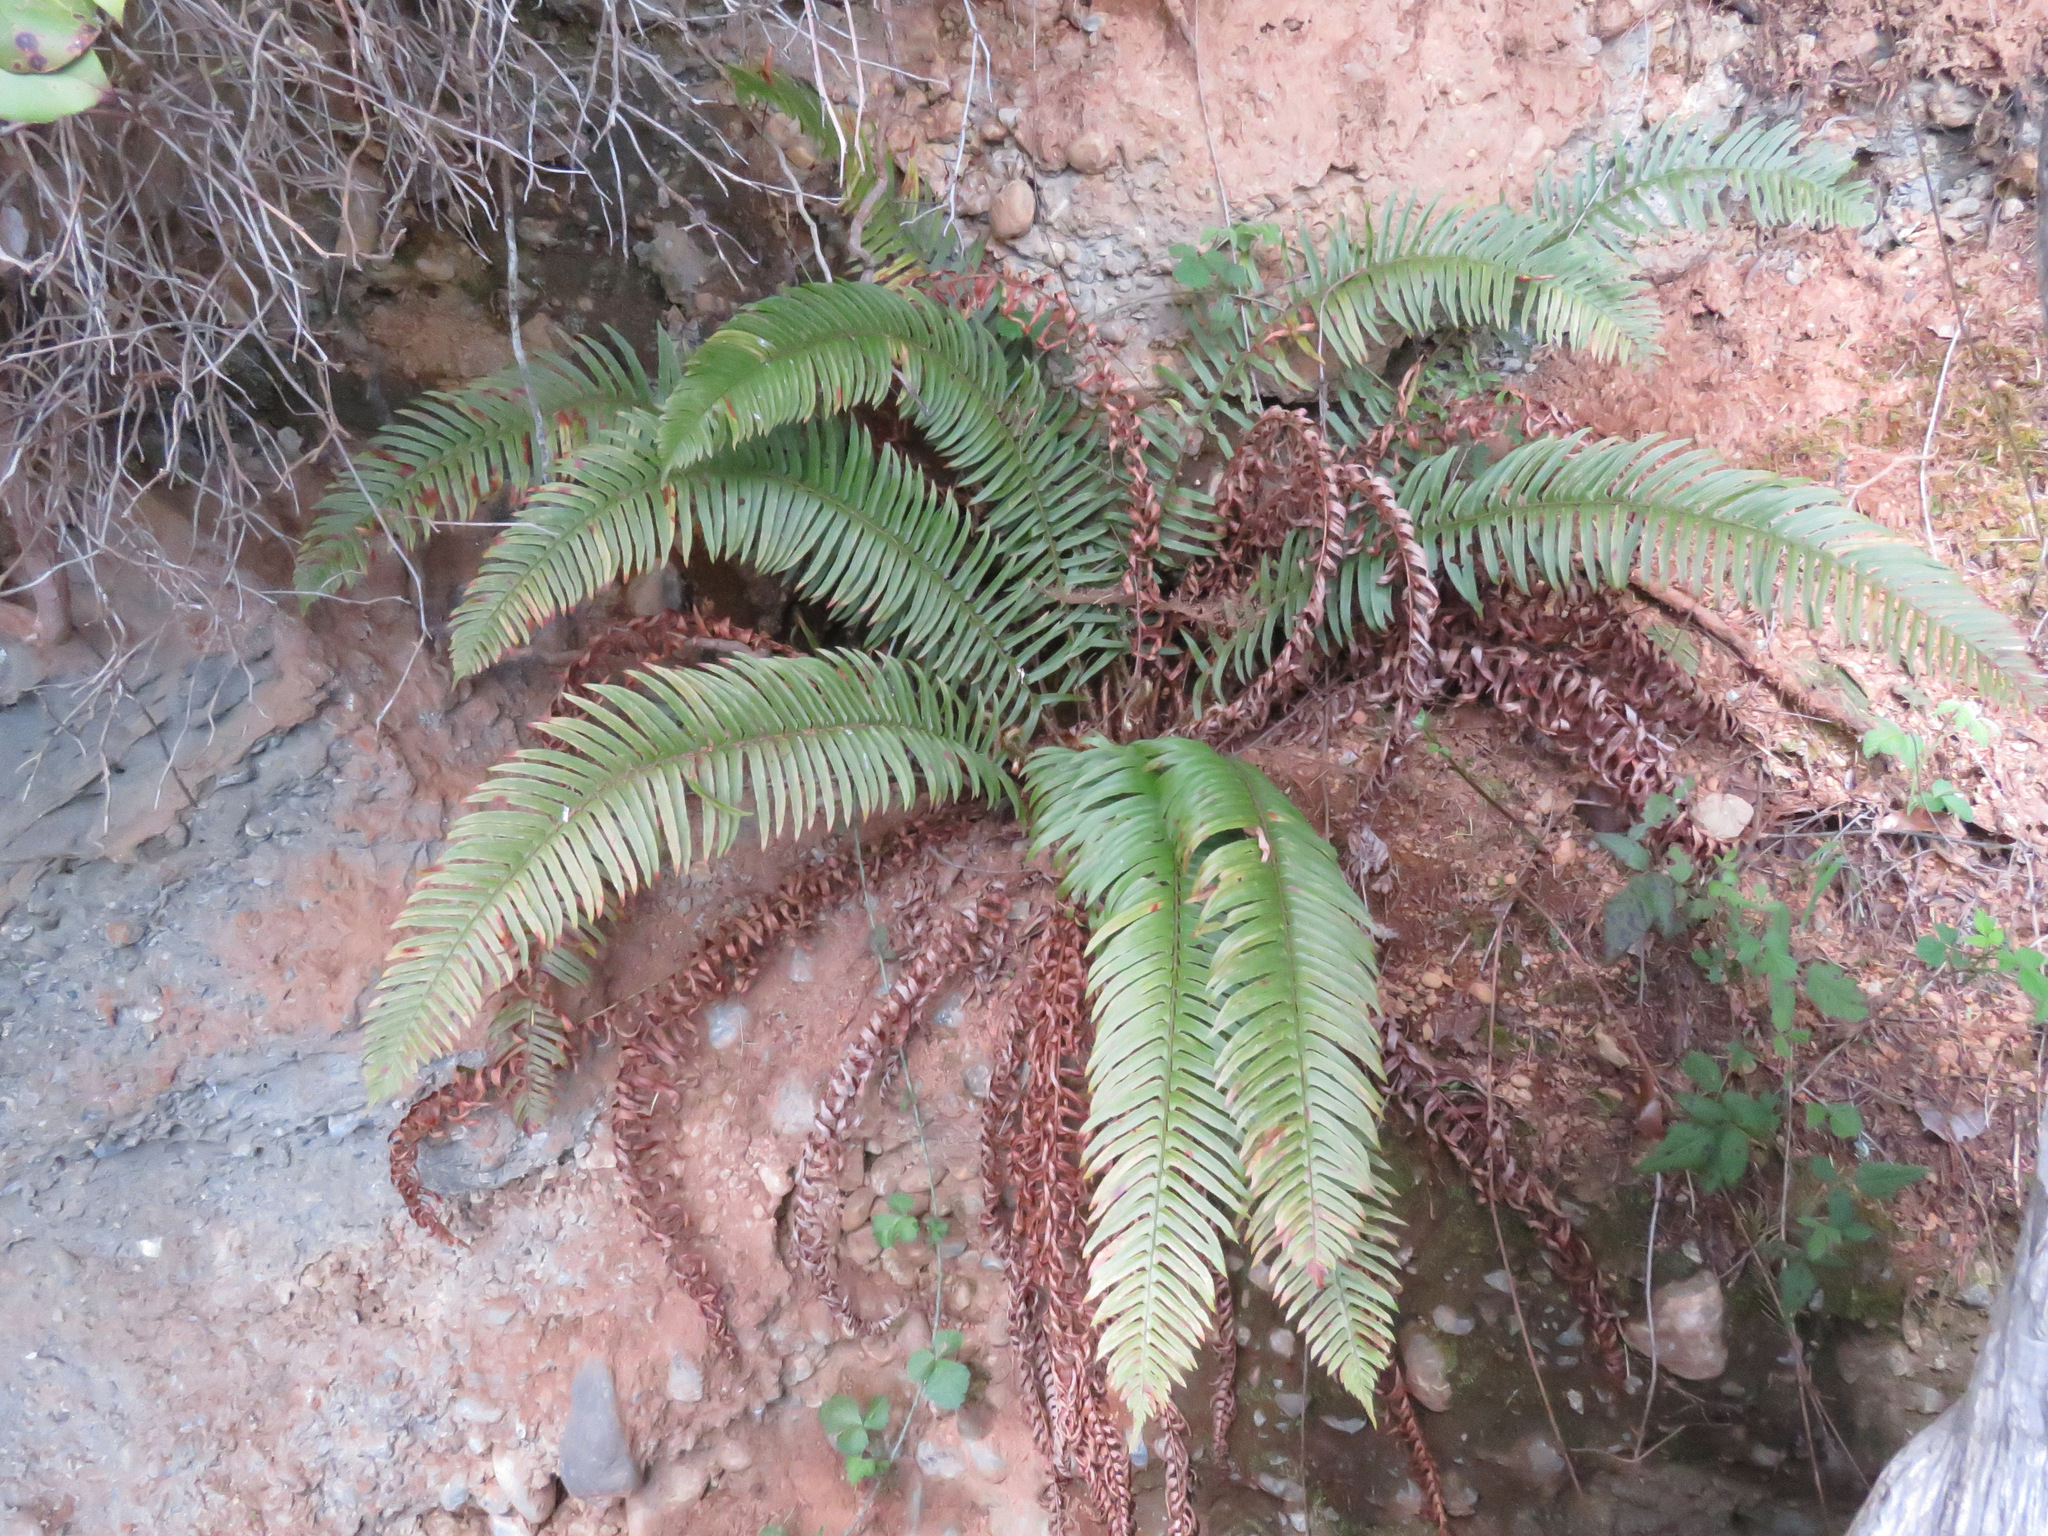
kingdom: Plantae
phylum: Tracheophyta
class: Polypodiopsida
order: Polypodiales
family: Dryopteridaceae
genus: Polystichum
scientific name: Polystichum munitum
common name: Western sword-fern
